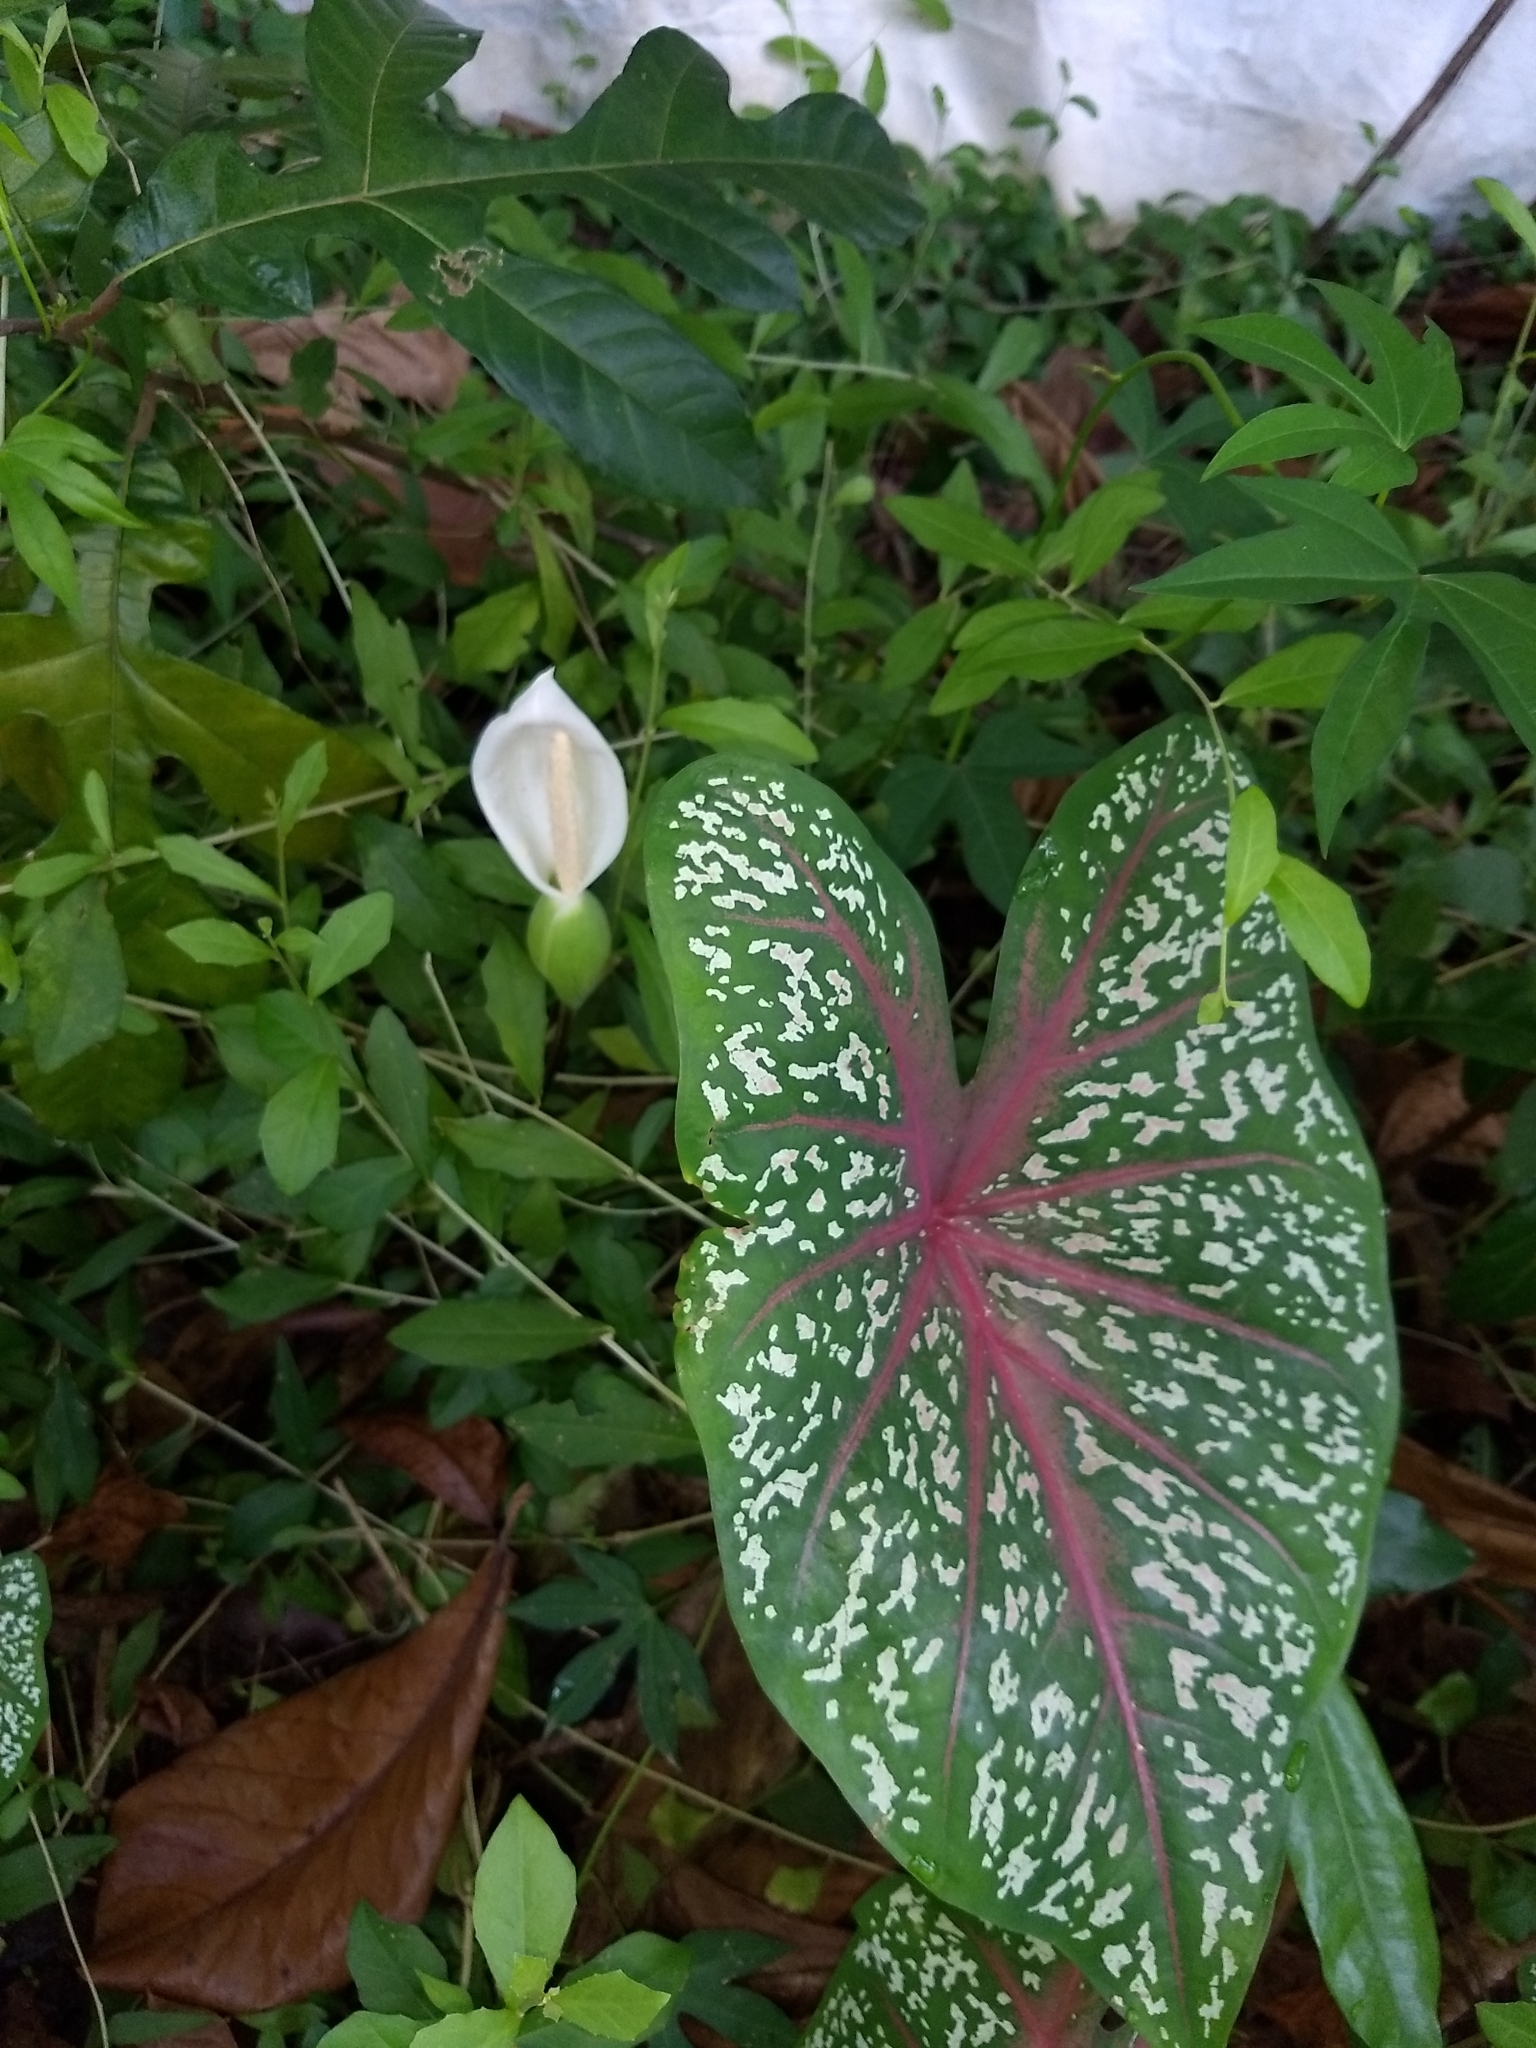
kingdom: Plantae
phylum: Tracheophyta
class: Liliopsida
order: Alismatales
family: Araceae
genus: Caladium
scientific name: Caladium bicolor
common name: Artist's pallet
